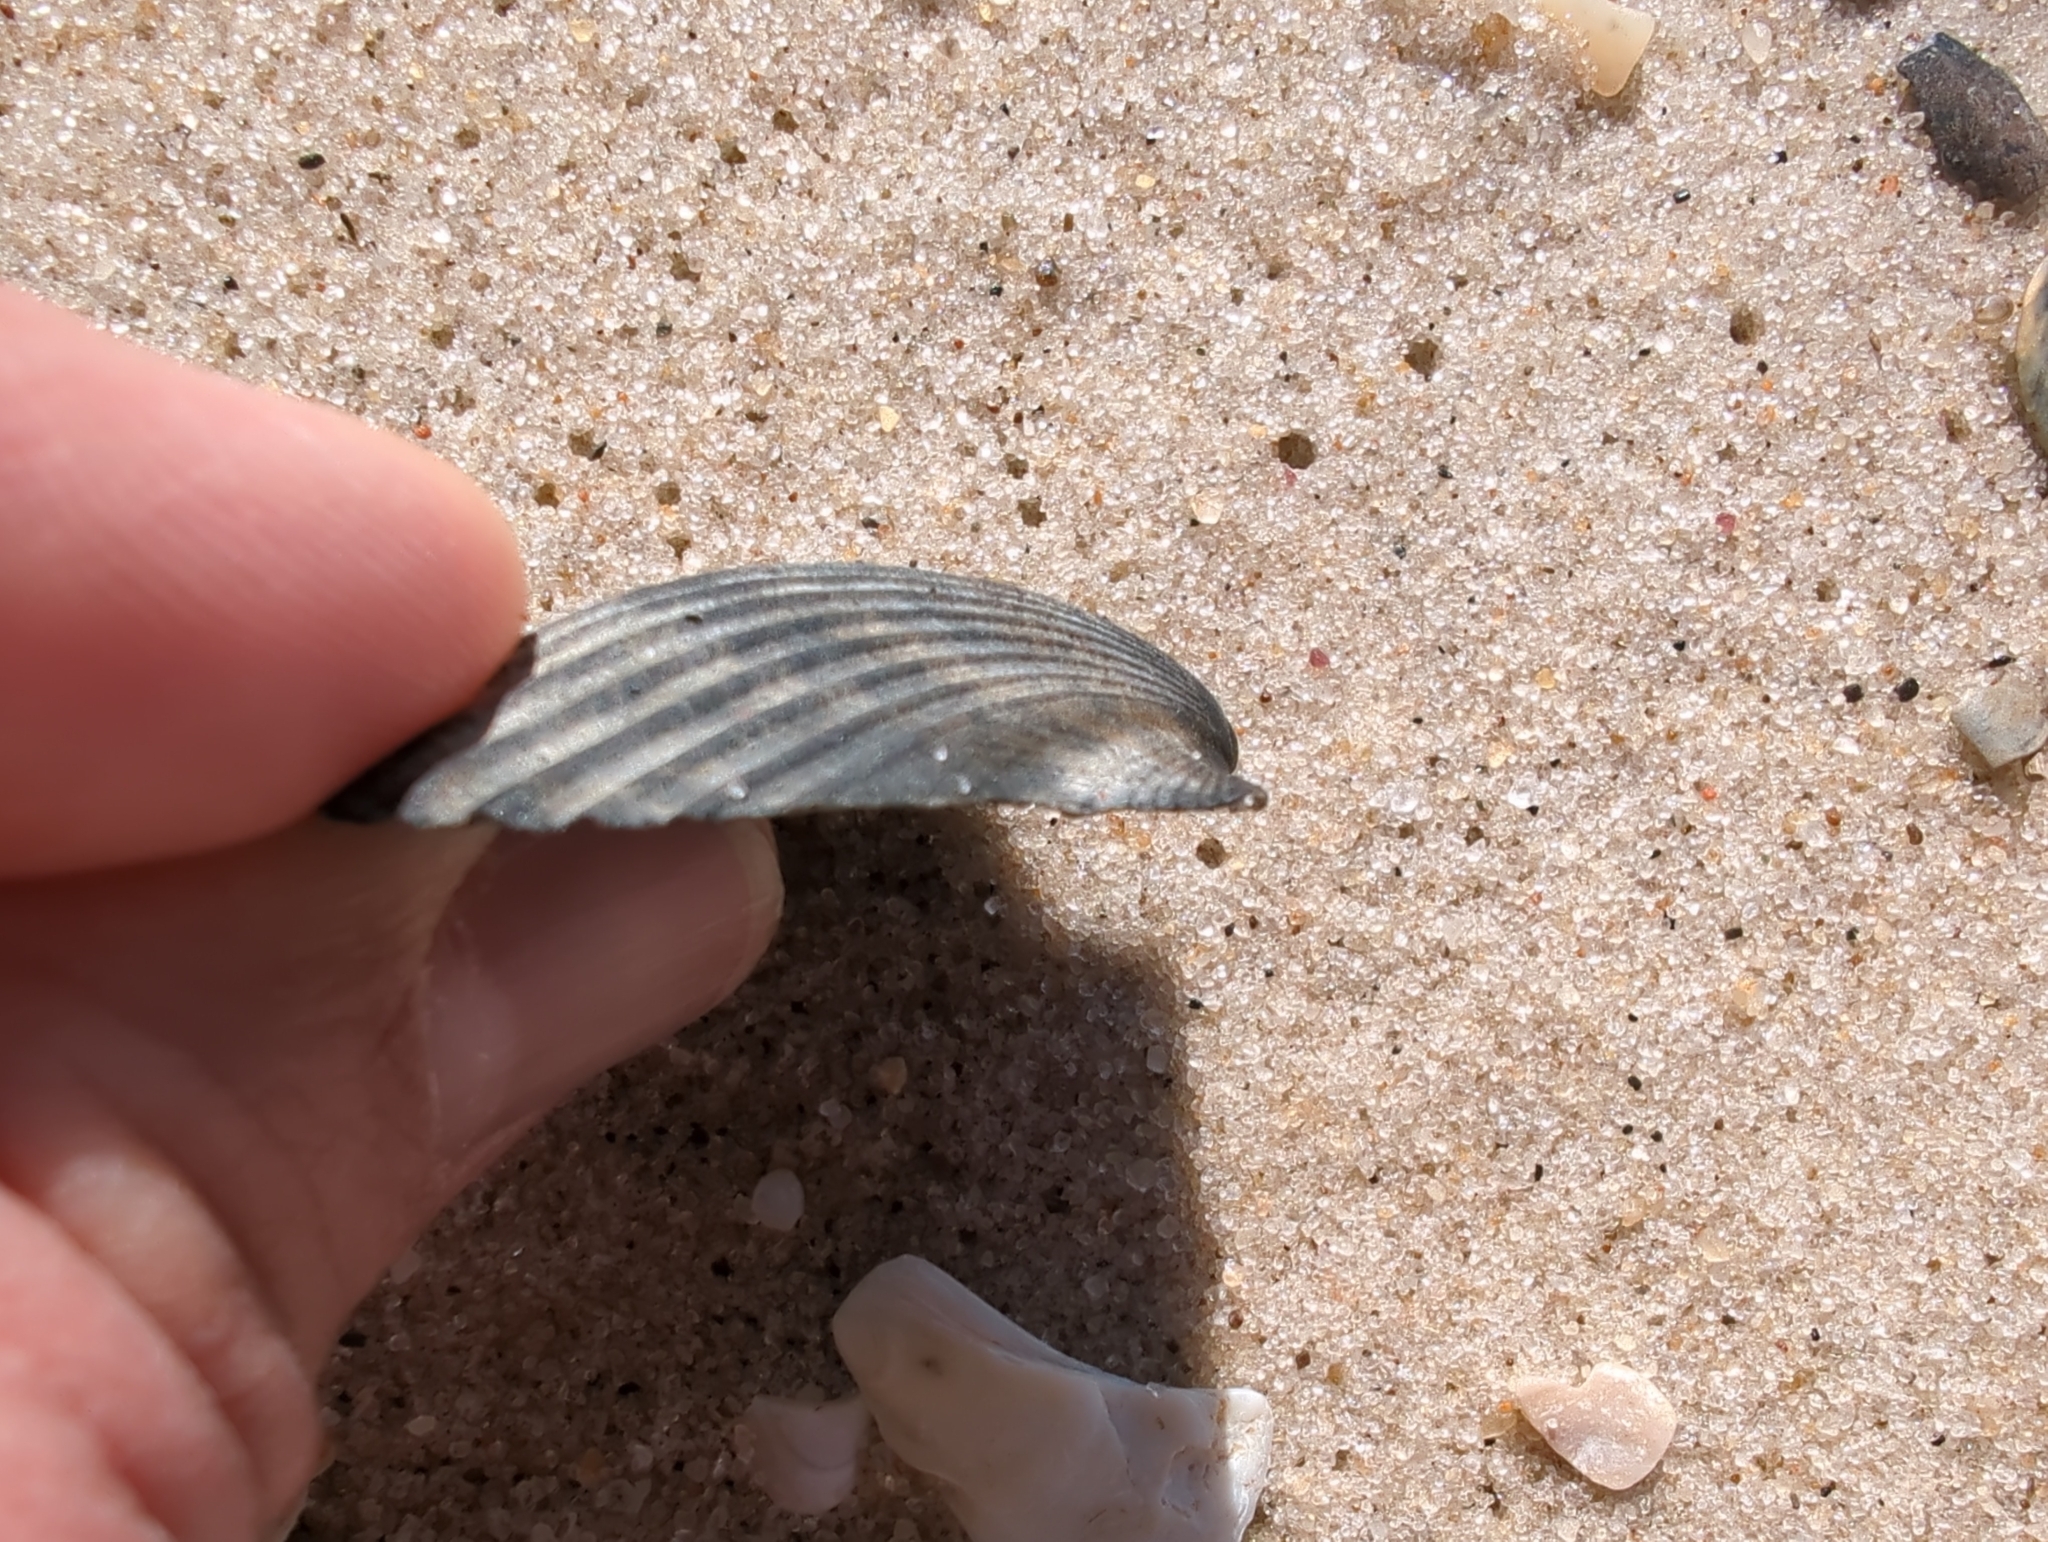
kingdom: Animalia
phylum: Mollusca
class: Bivalvia
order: Pectinida
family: Pectinidae
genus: Argopecten
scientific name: Argopecten irradians
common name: Atlantic bay scallop
